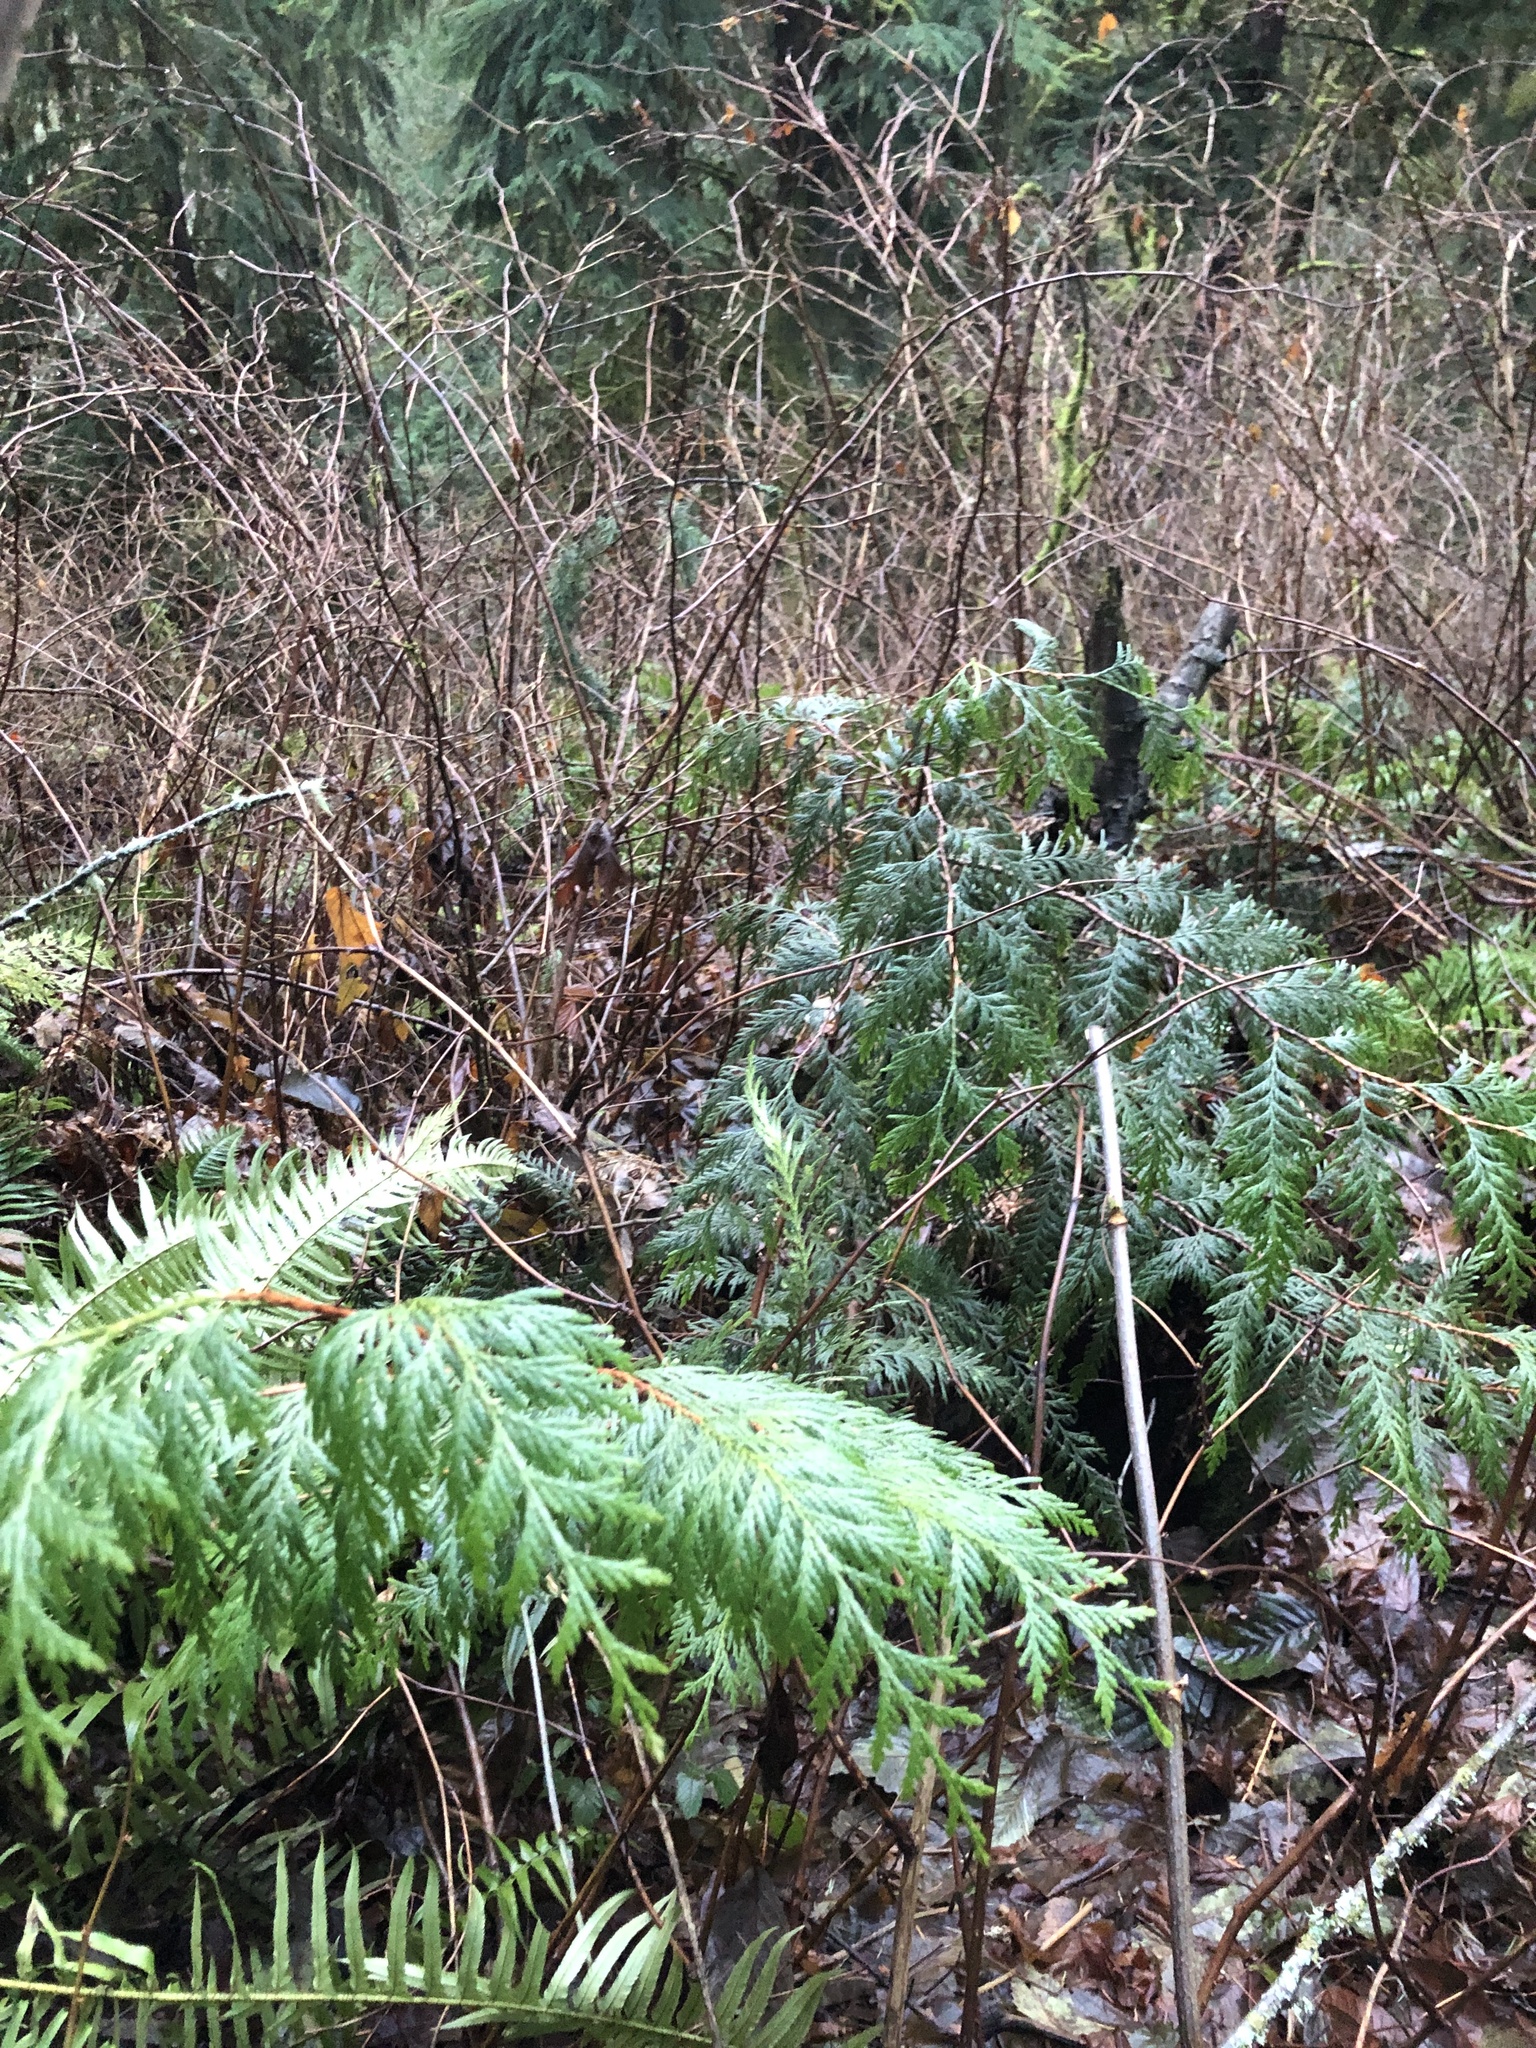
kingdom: Plantae
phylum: Tracheophyta
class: Pinopsida
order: Pinales
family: Cupressaceae
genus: Thuja
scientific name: Thuja plicata
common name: Western red-cedar
